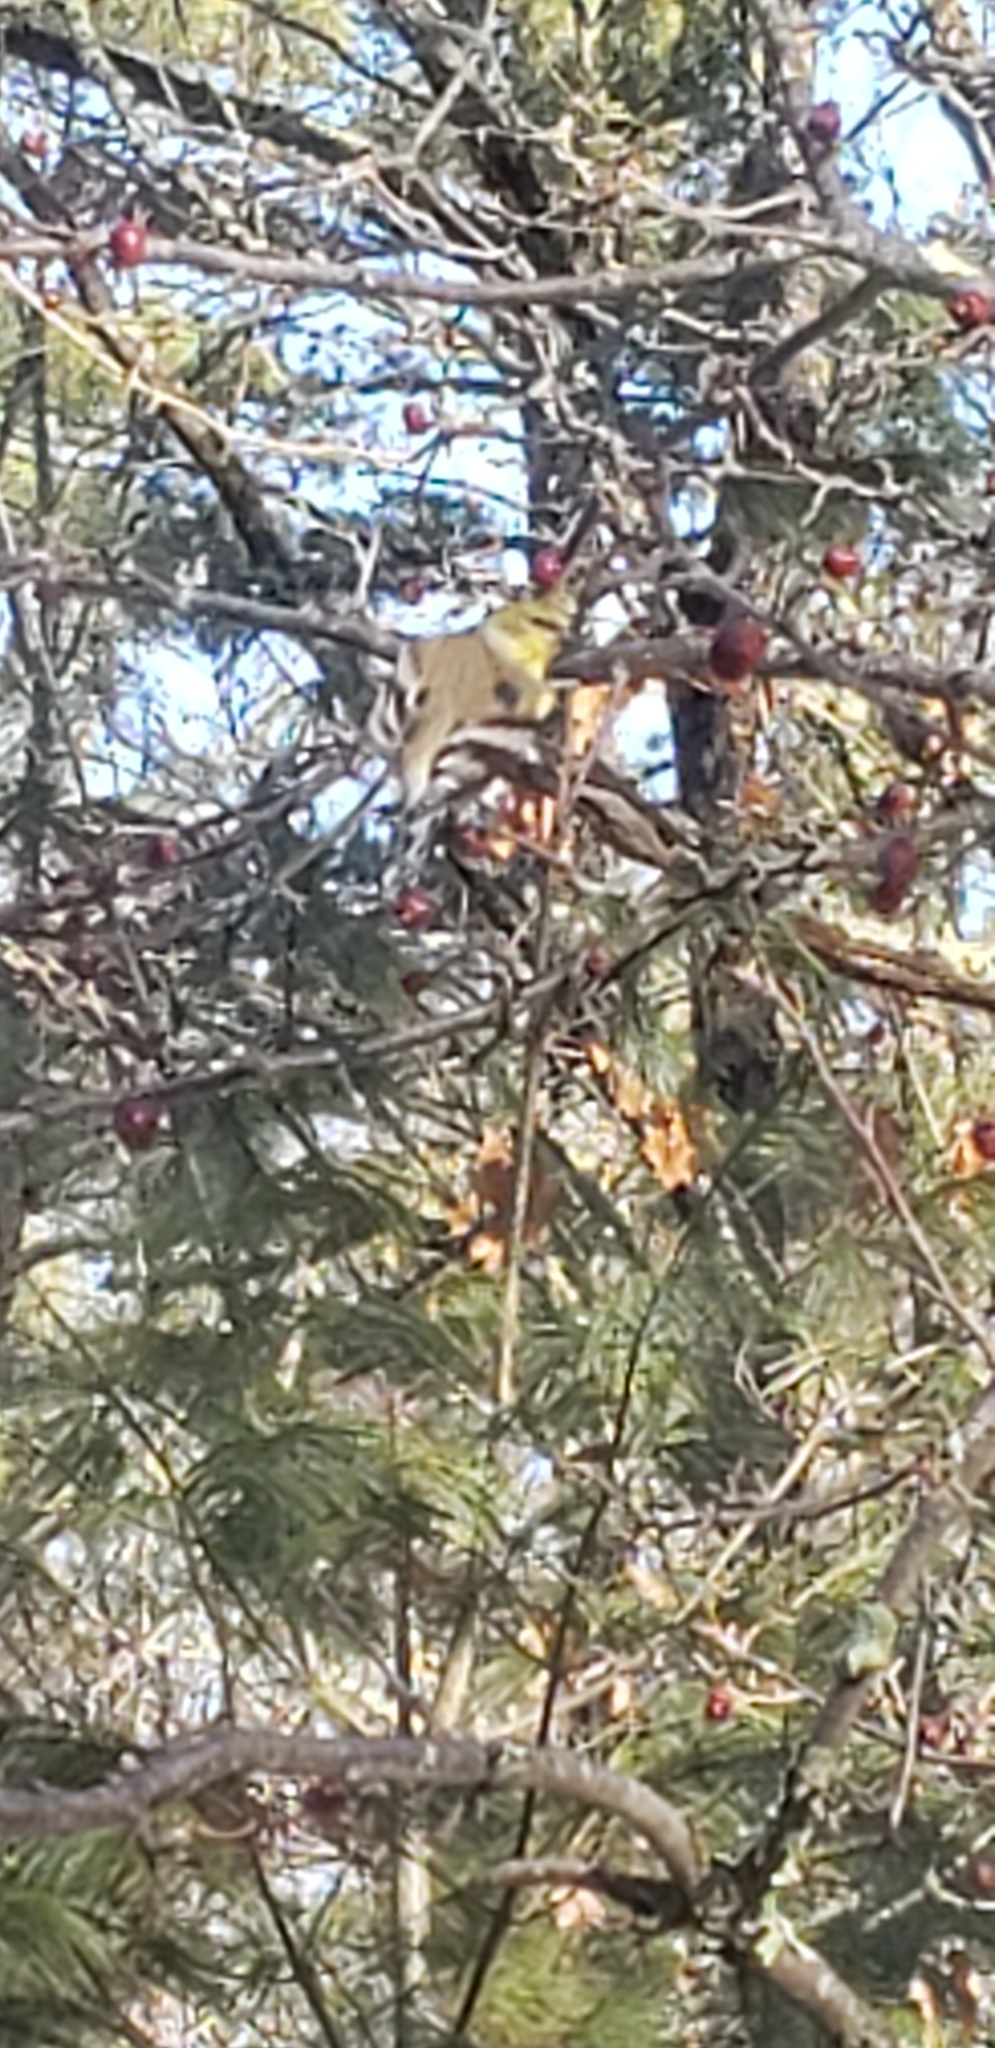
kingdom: Animalia
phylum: Chordata
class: Aves
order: Passeriformes
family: Fringillidae
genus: Spinus
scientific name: Spinus tristis
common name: American goldfinch
